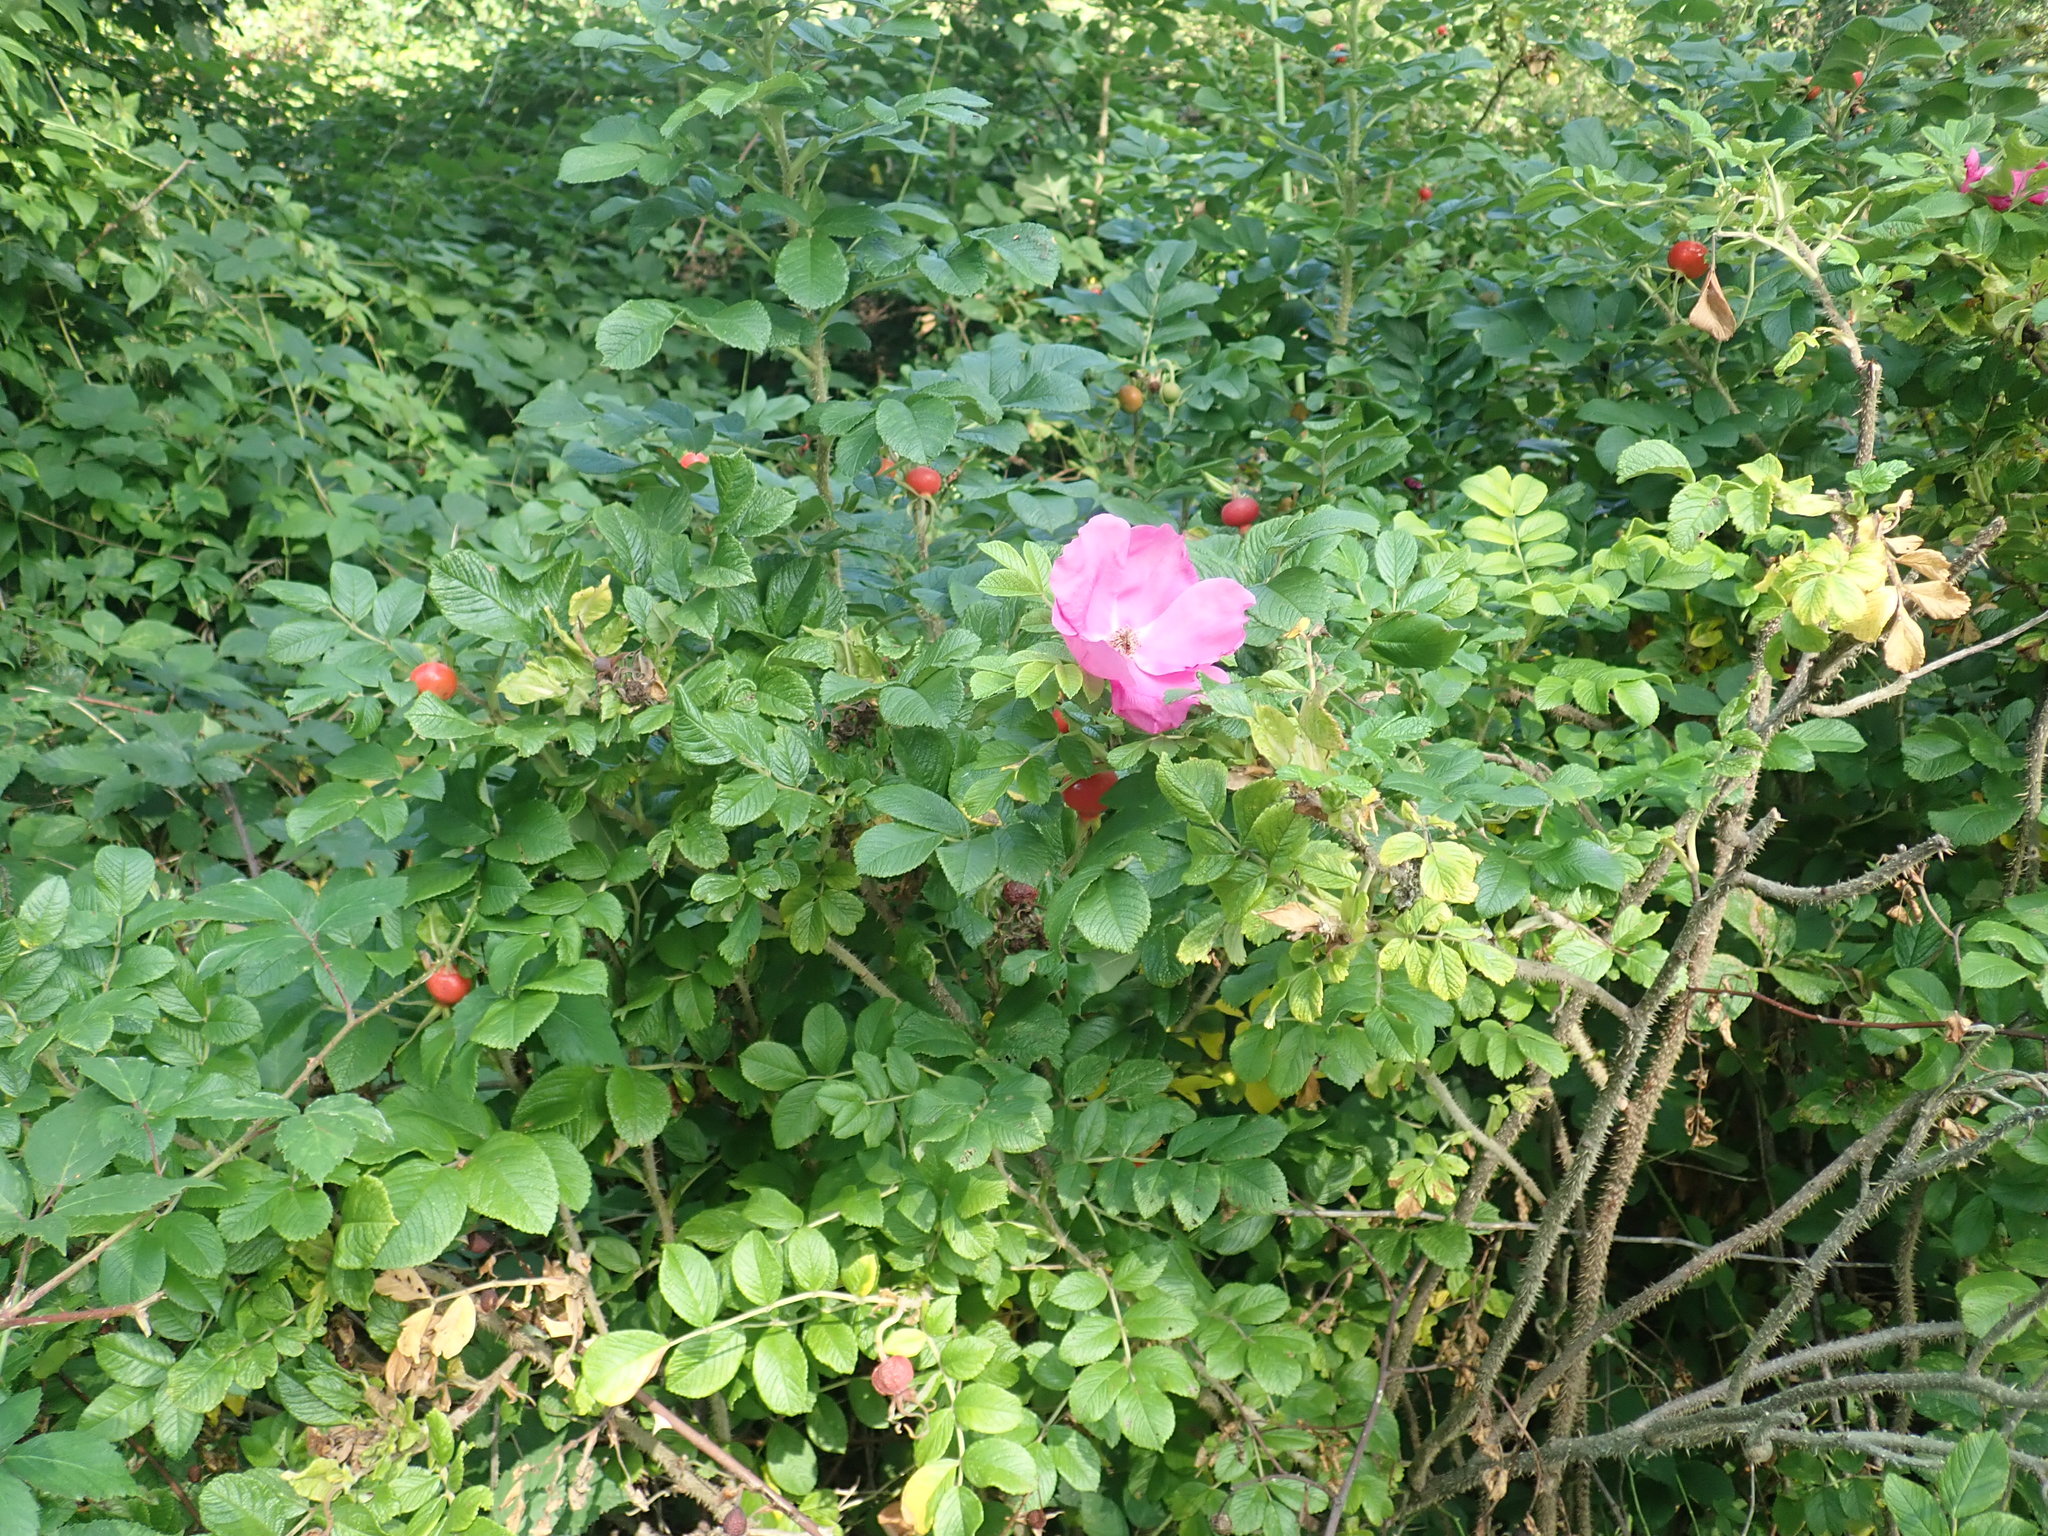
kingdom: Plantae
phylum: Tracheophyta
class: Magnoliopsida
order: Rosales
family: Rosaceae
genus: Rosa
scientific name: Rosa rugosa
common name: Japanese rose
